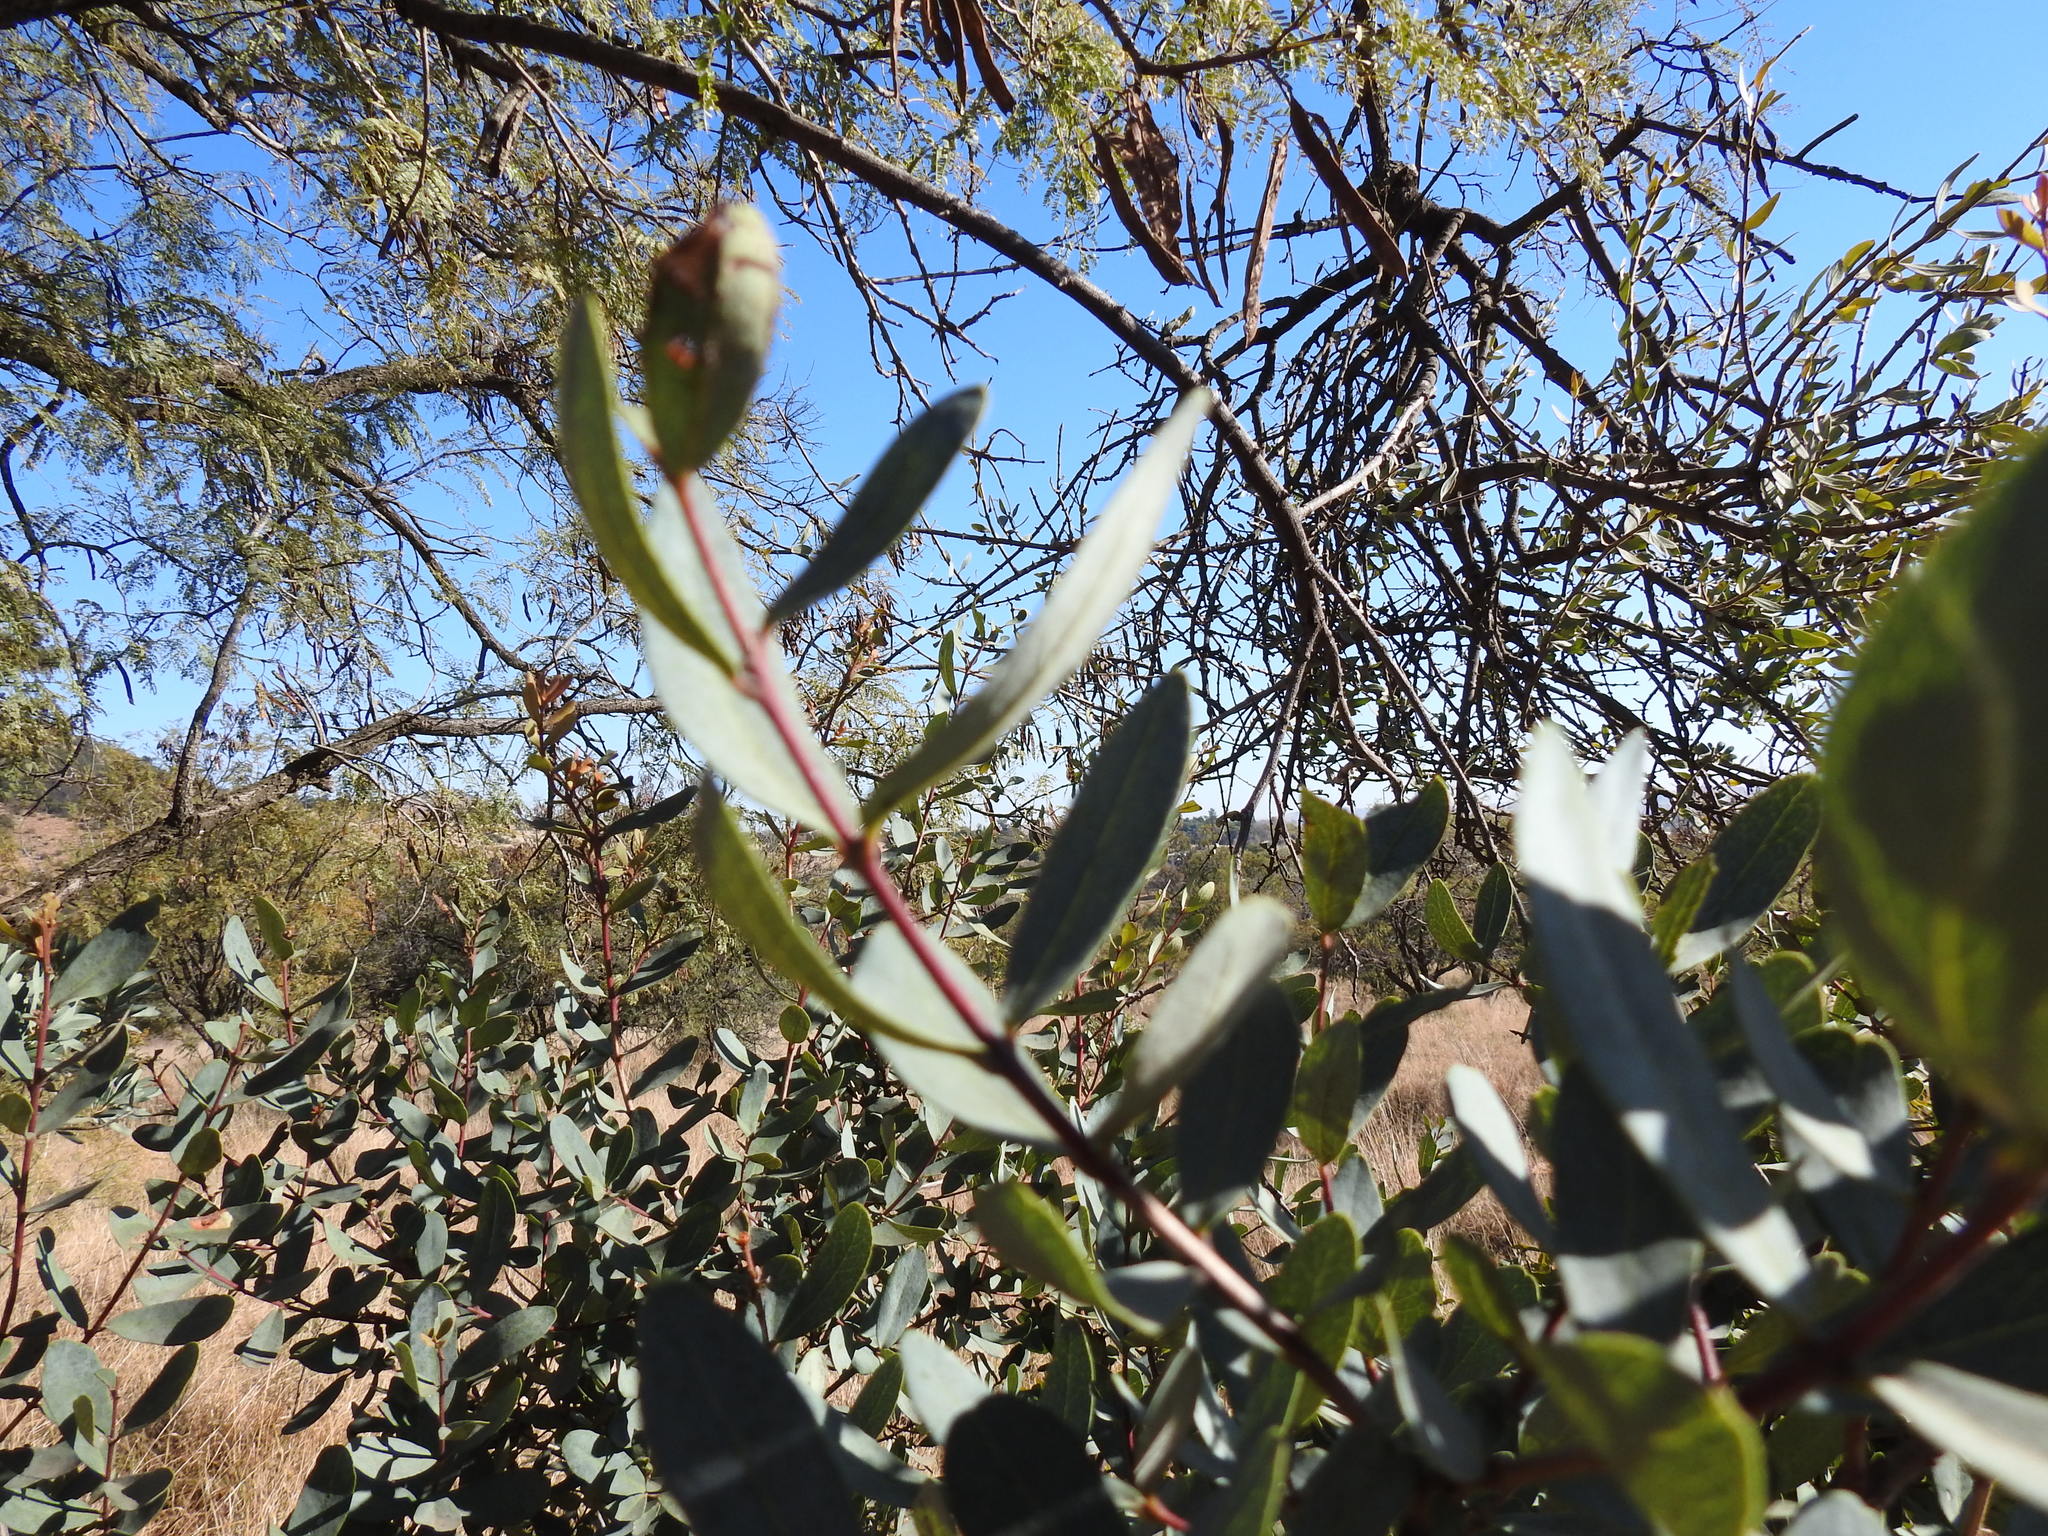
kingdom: Plantae
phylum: Tracheophyta
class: Magnoliopsida
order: Ericales
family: Ebenaceae
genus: Euclea
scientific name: Euclea crispa
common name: Blue guarri
